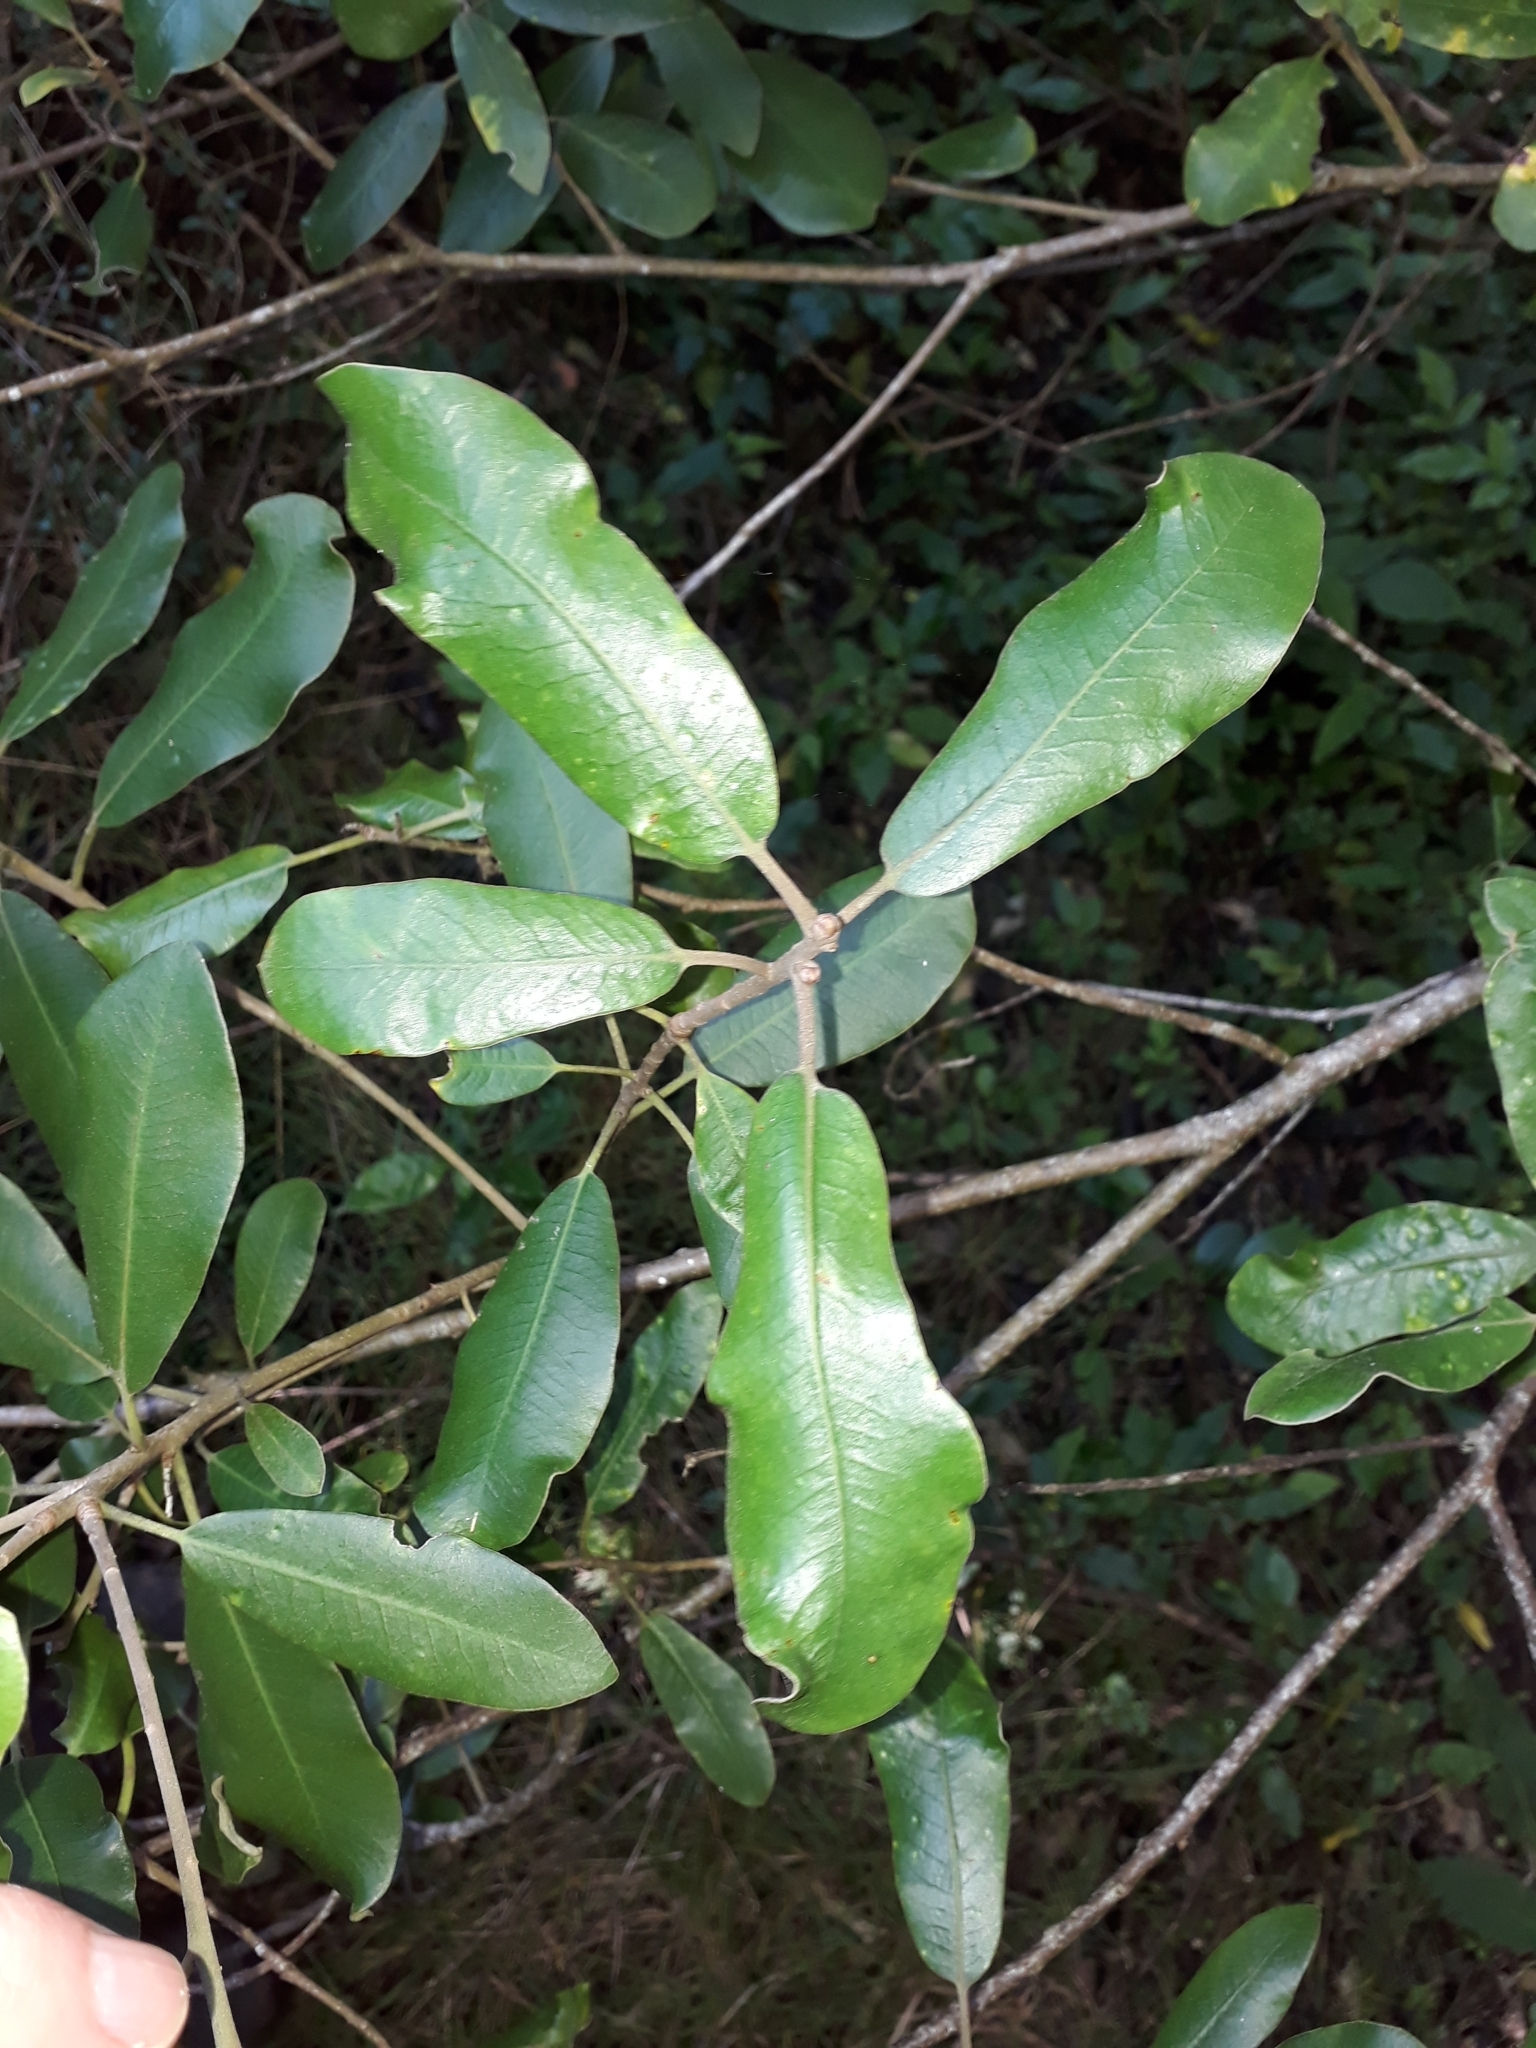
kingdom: Plantae
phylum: Tracheophyta
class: Magnoliopsida
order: Apiales
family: Pittosporaceae
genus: Pittosporum
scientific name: Pittosporum ralphii
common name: Ralph's desertwillow
